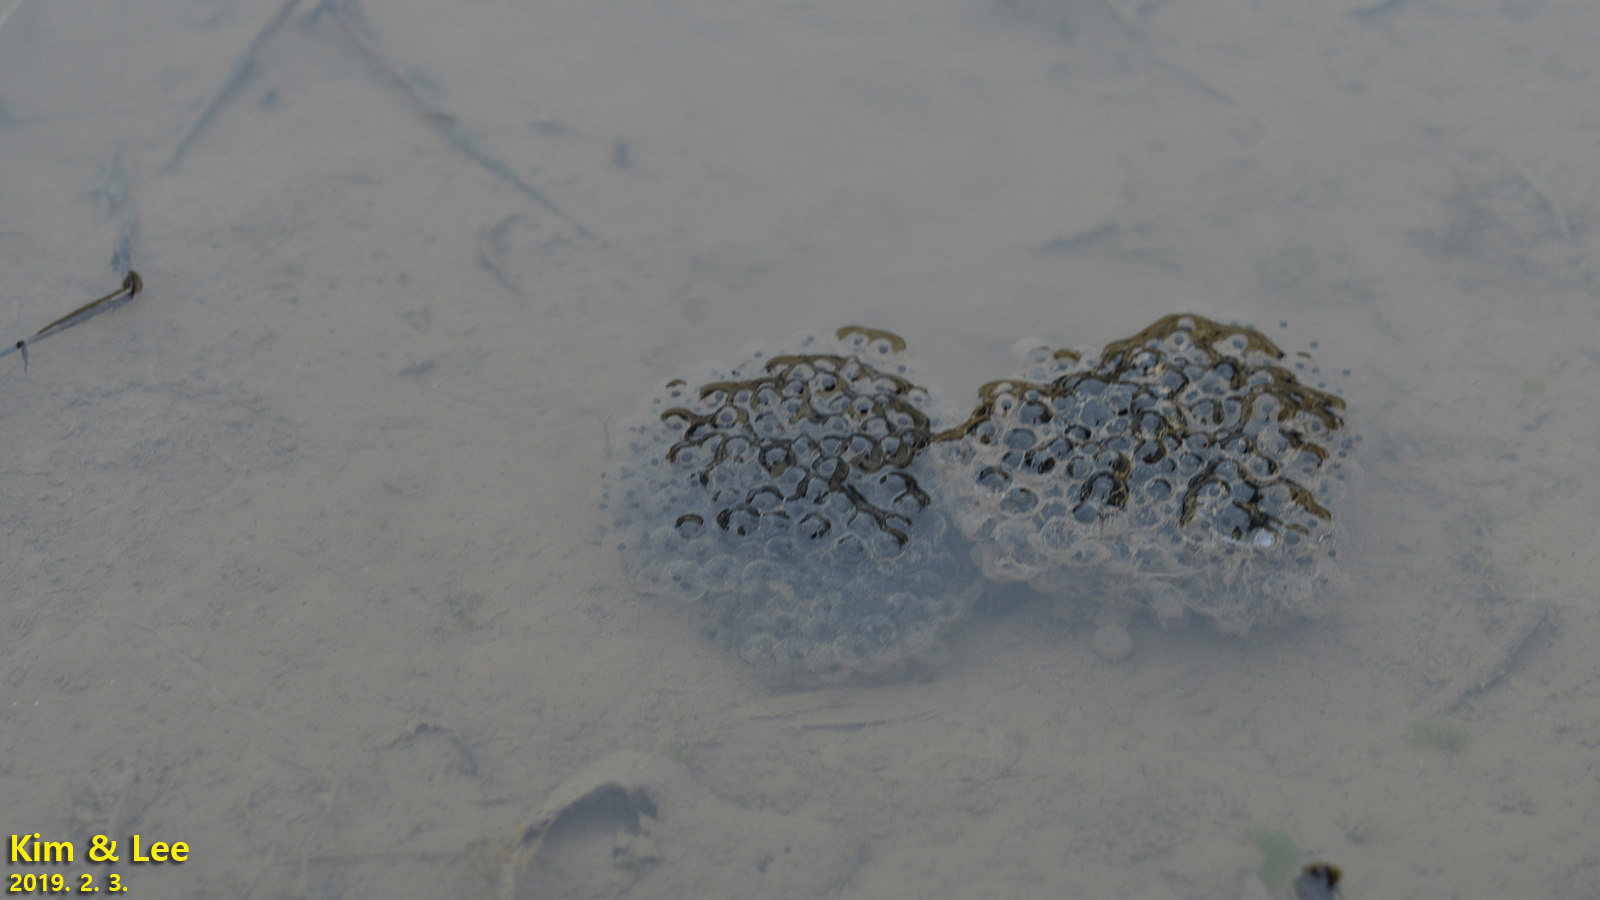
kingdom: Animalia
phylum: Chordata
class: Amphibia
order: Anura
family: Ranidae
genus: Rana
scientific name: Rana uenoi
